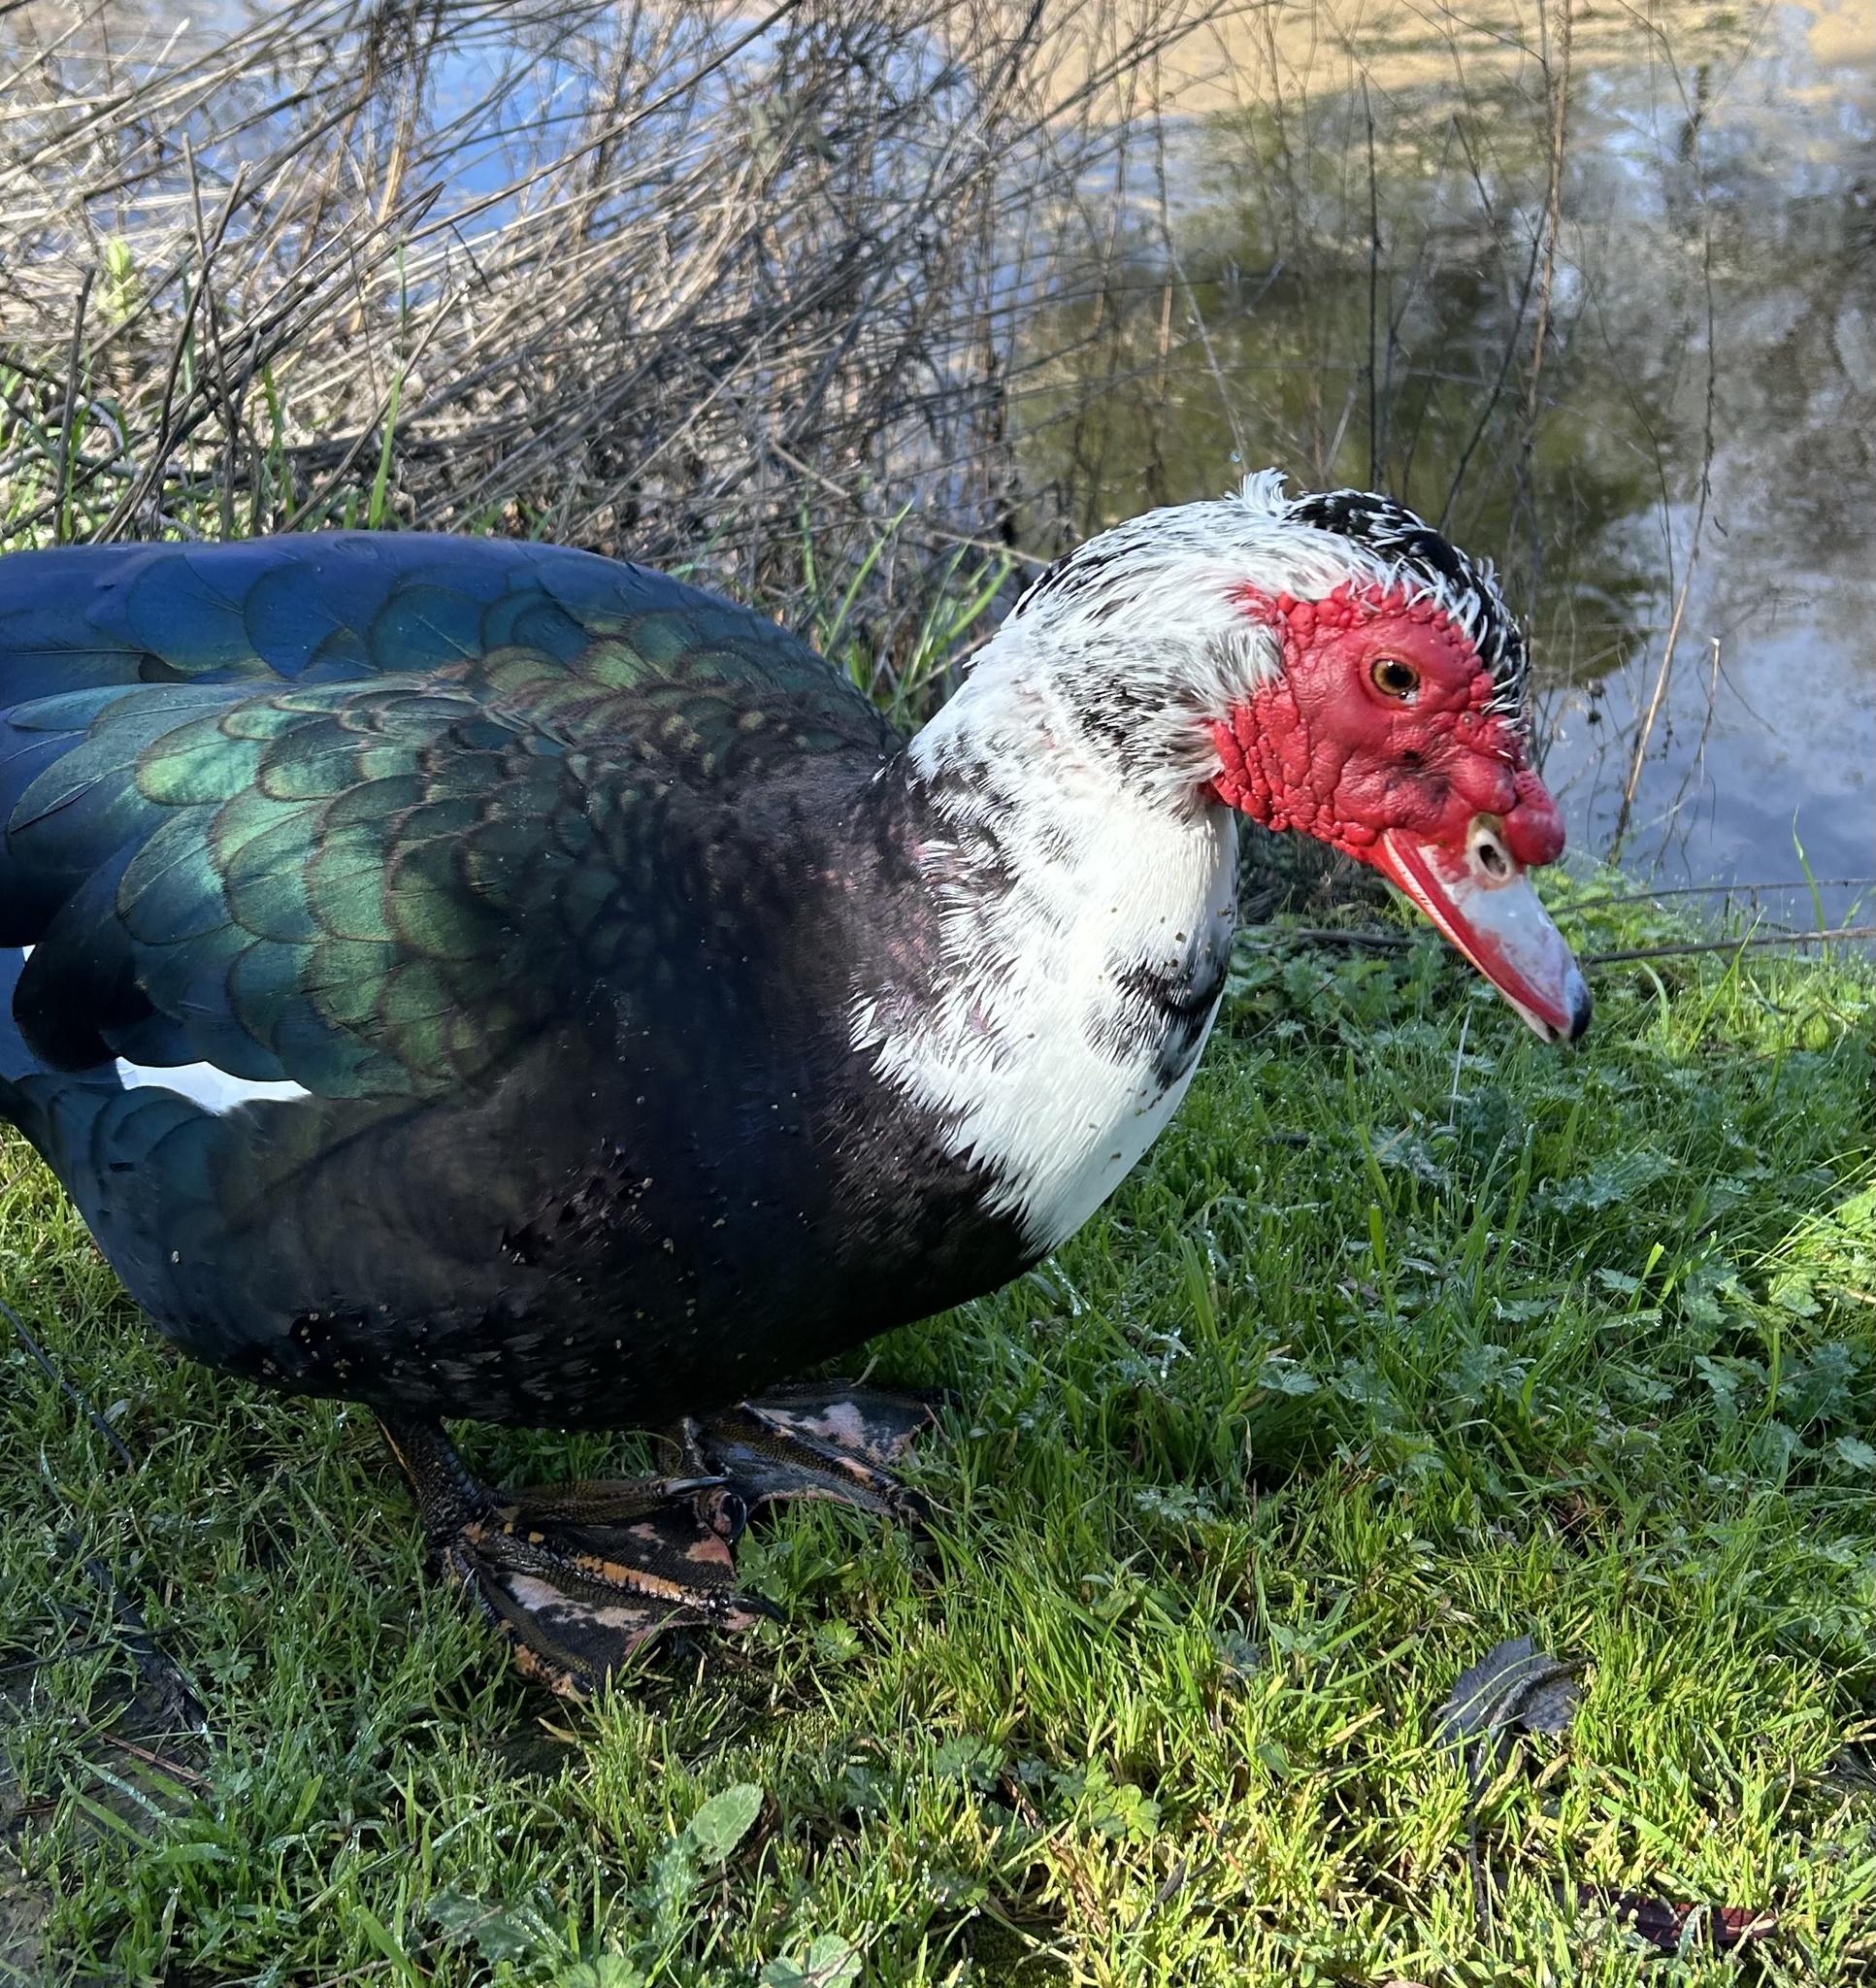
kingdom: Animalia
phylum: Chordata
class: Aves
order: Anseriformes
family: Anatidae
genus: Cairina
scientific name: Cairina moschata
